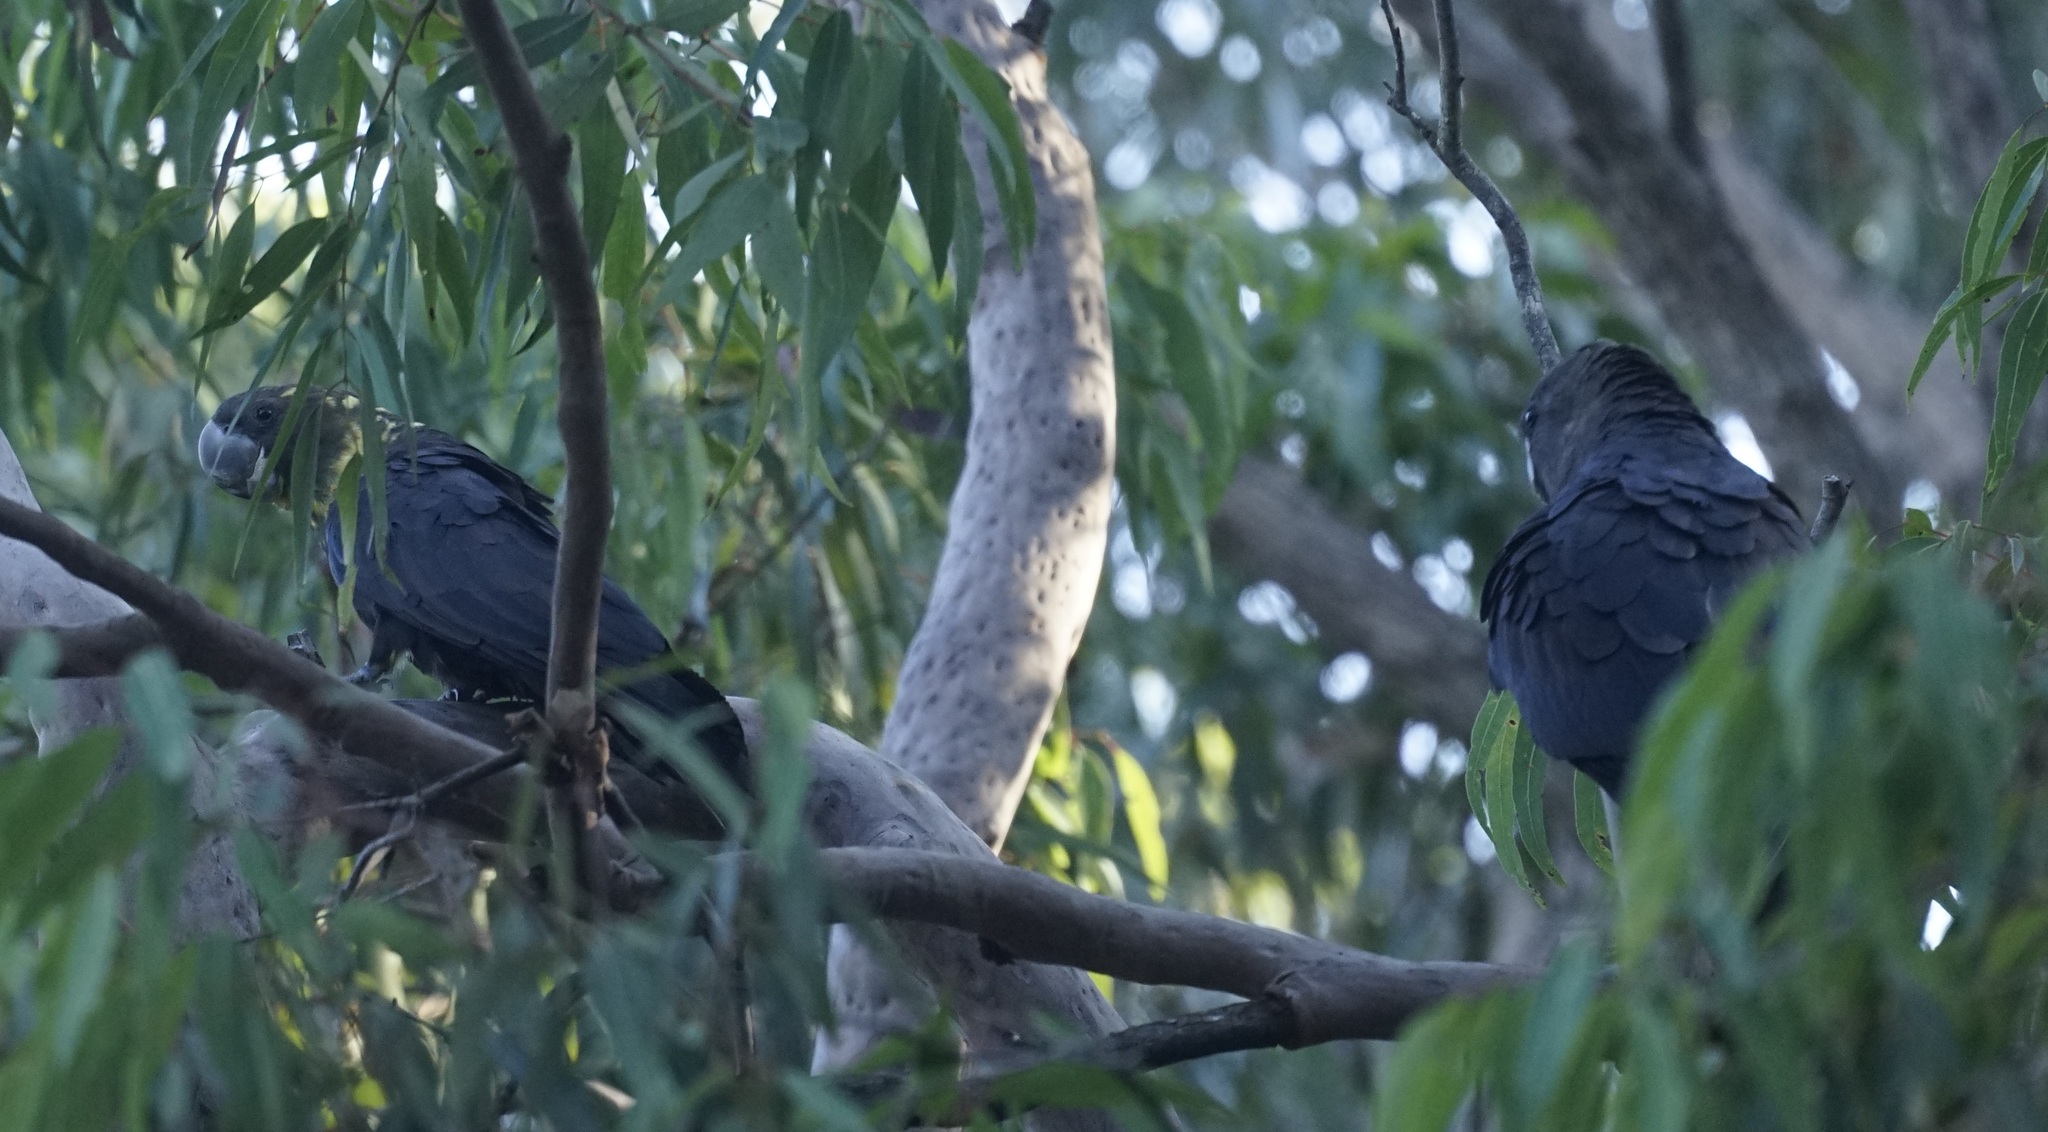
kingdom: Animalia
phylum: Chordata
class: Aves
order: Psittaciformes
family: Psittacidae
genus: Calyptorhynchus
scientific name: Calyptorhynchus lathami
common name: Glossy black cockatoo
